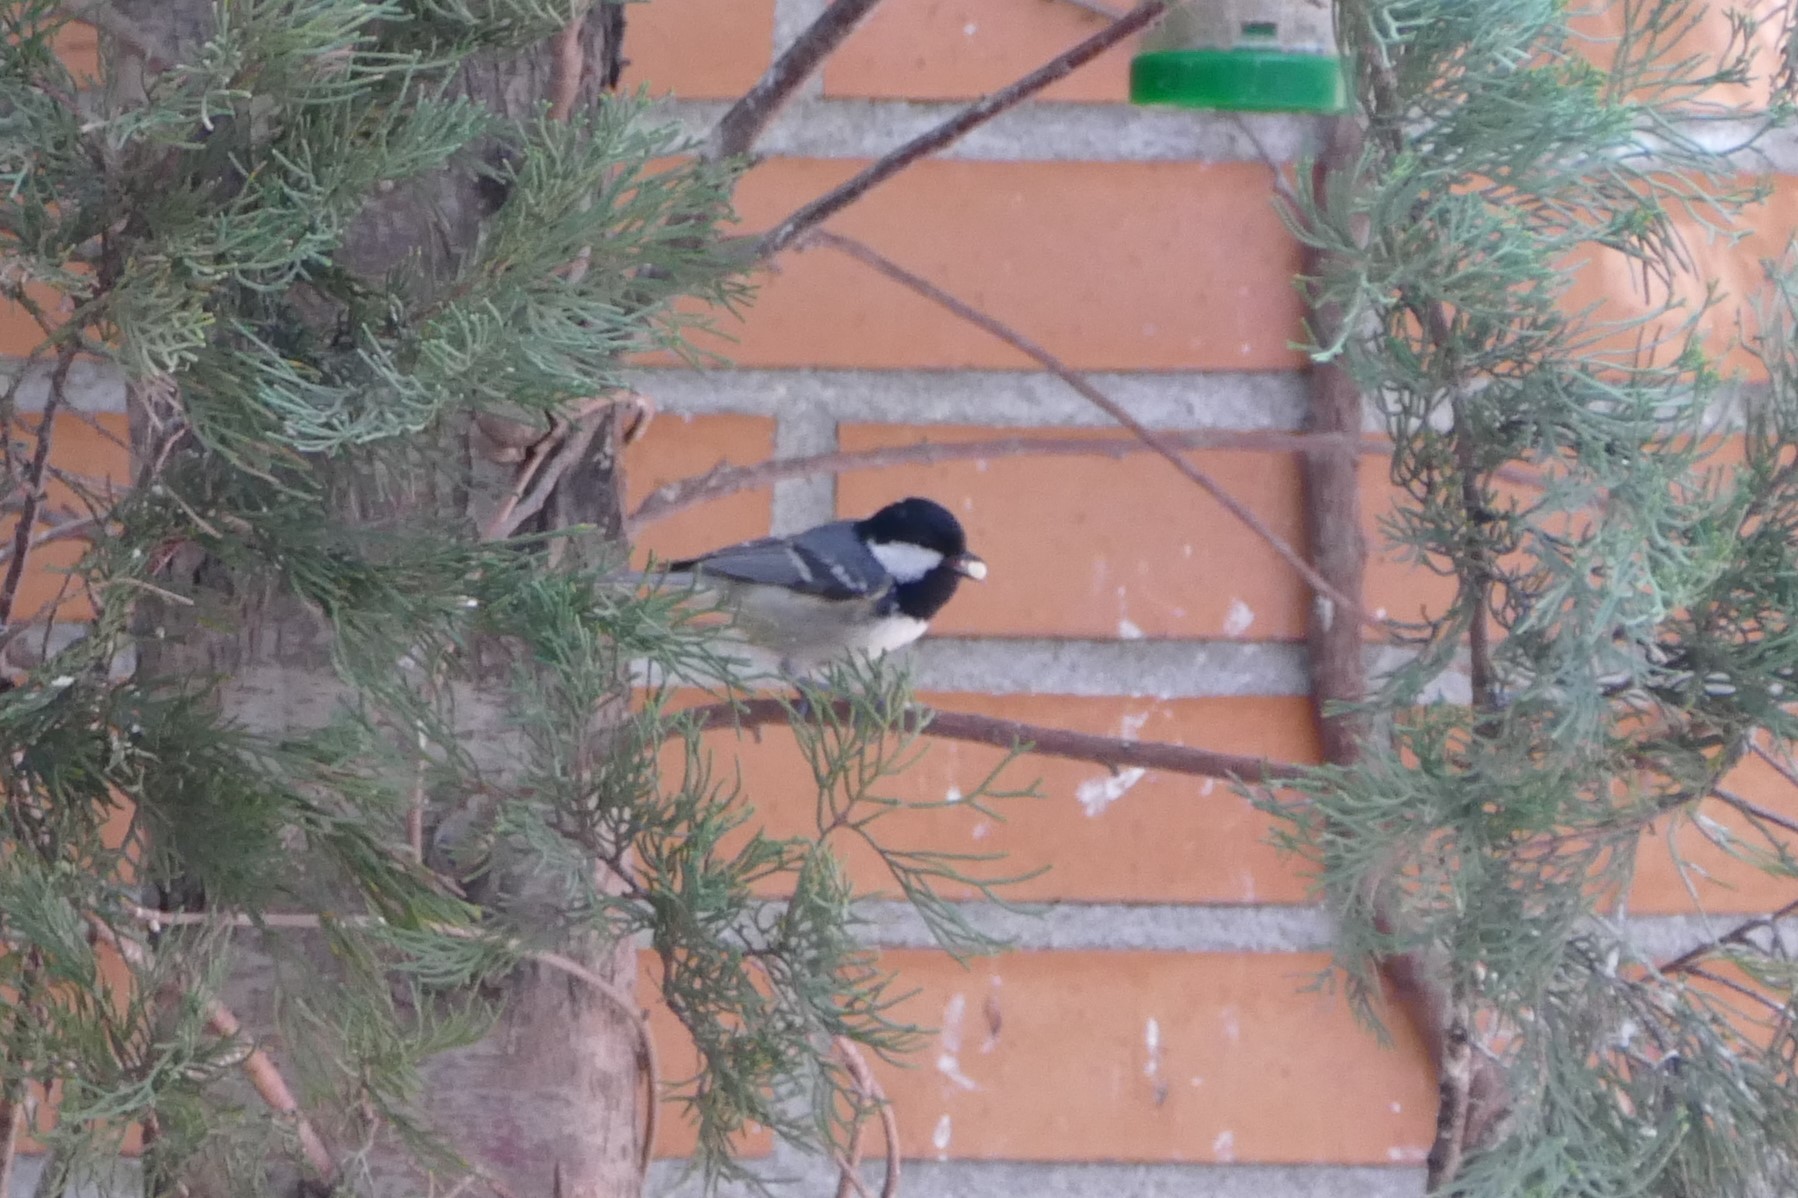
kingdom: Animalia
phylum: Chordata
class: Aves
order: Passeriformes
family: Paridae
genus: Periparus
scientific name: Periparus ater
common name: Coal tit
